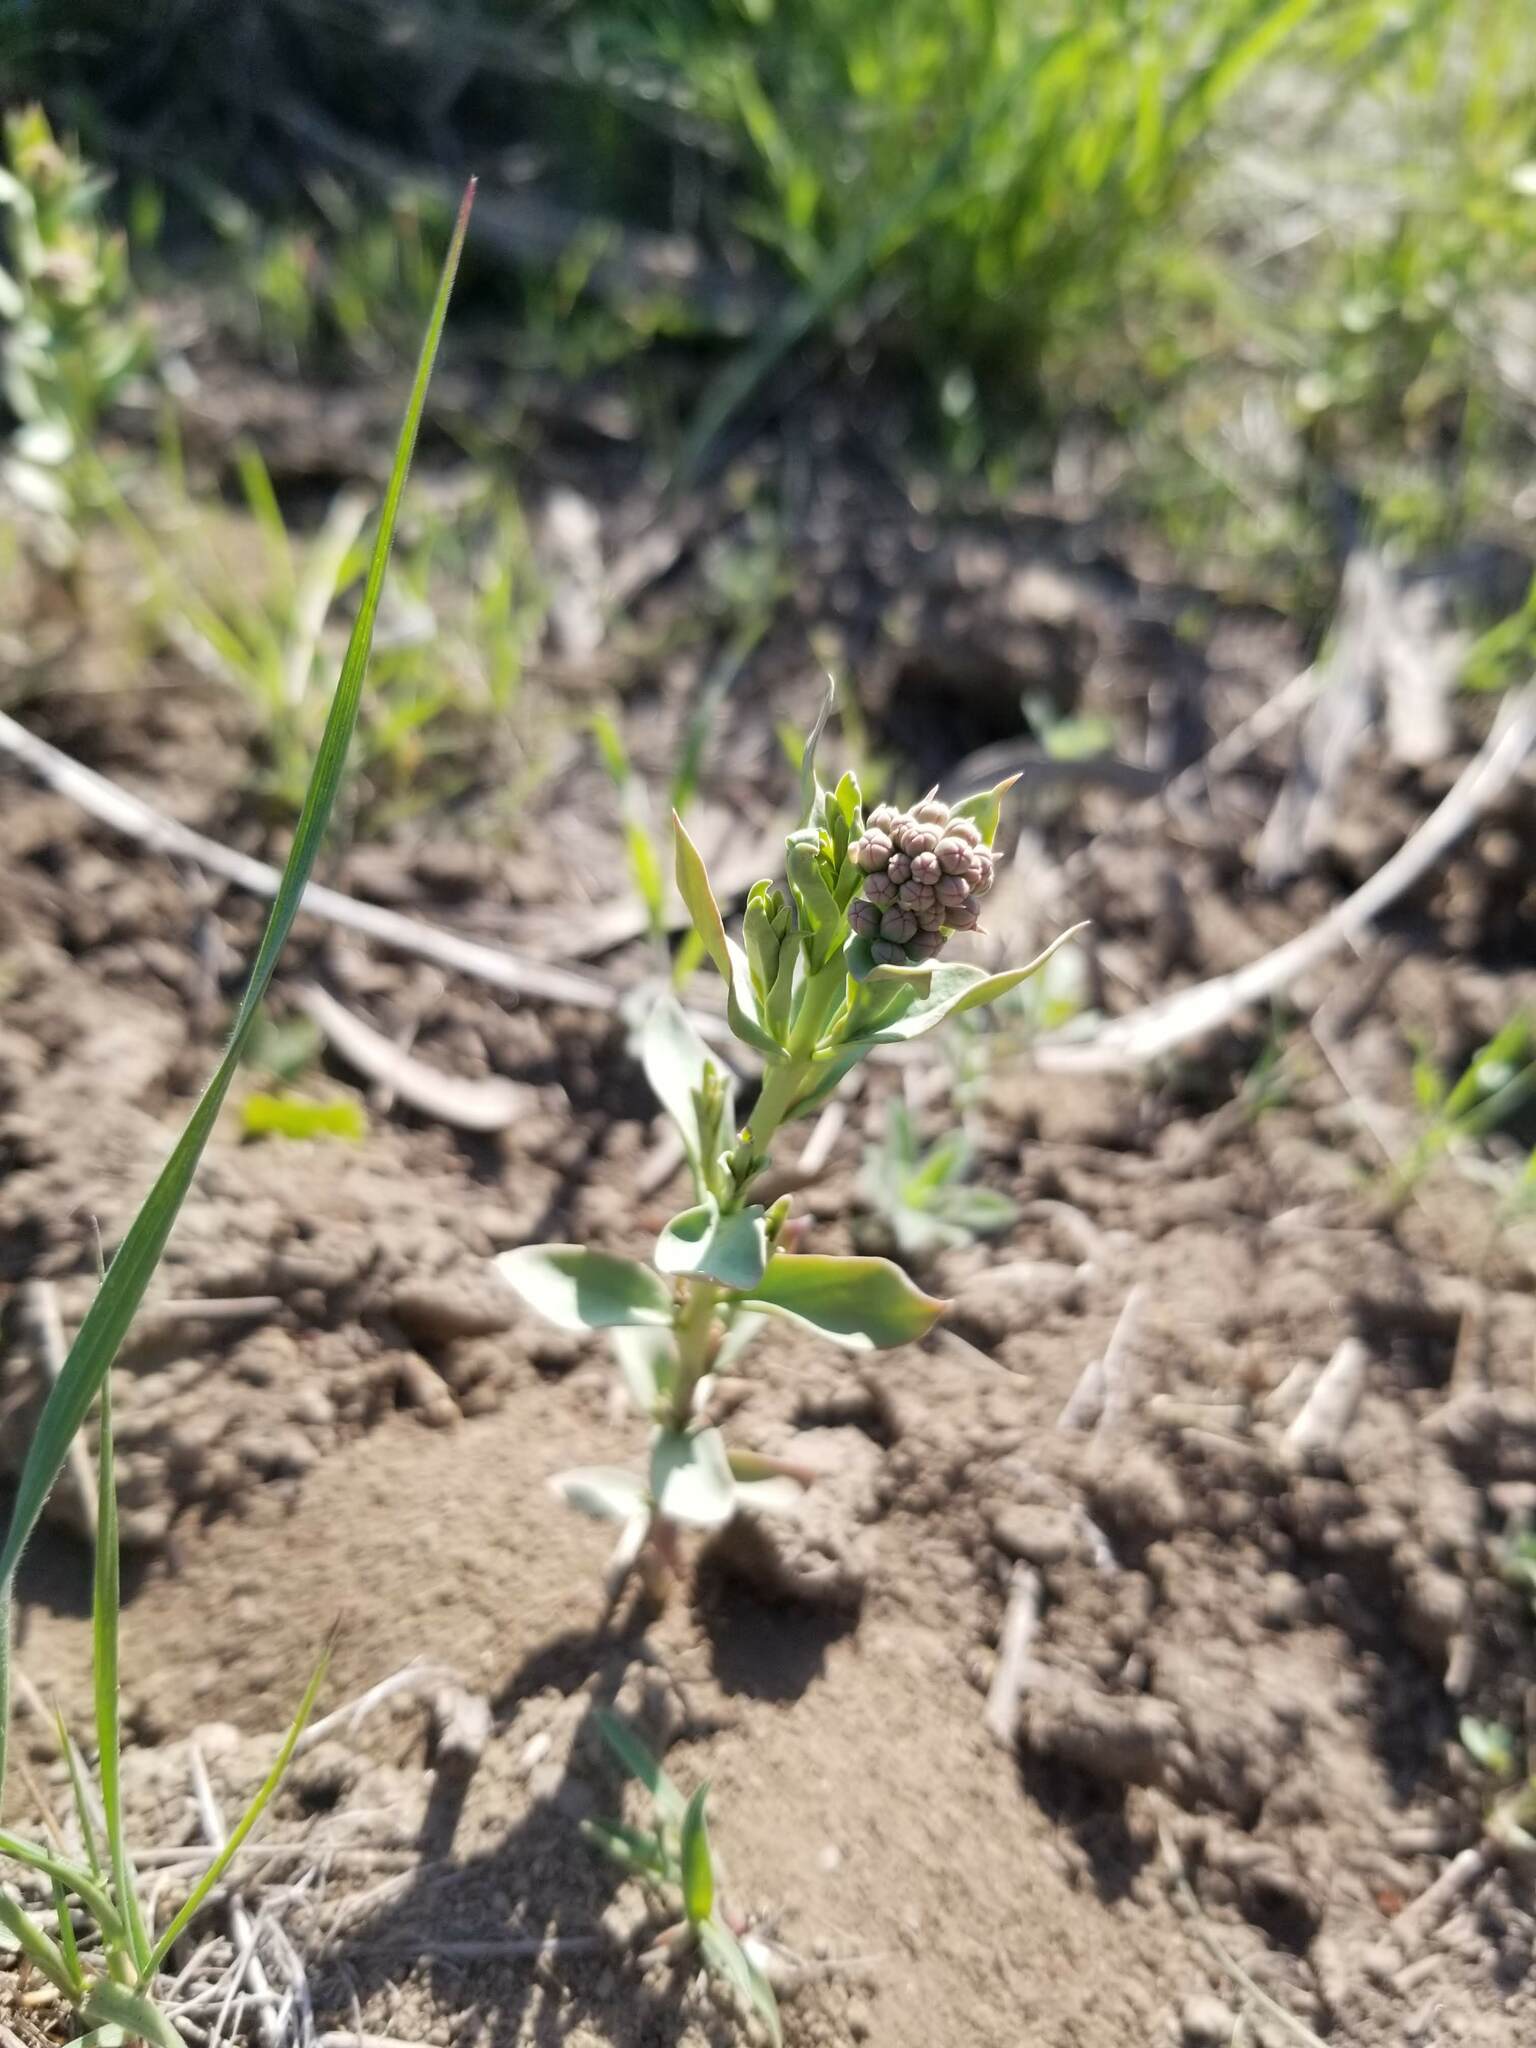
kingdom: Plantae
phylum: Tracheophyta
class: Magnoliopsida
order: Santalales
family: Comandraceae
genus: Comandra
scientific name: Comandra umbellata
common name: Bastard toadflax
